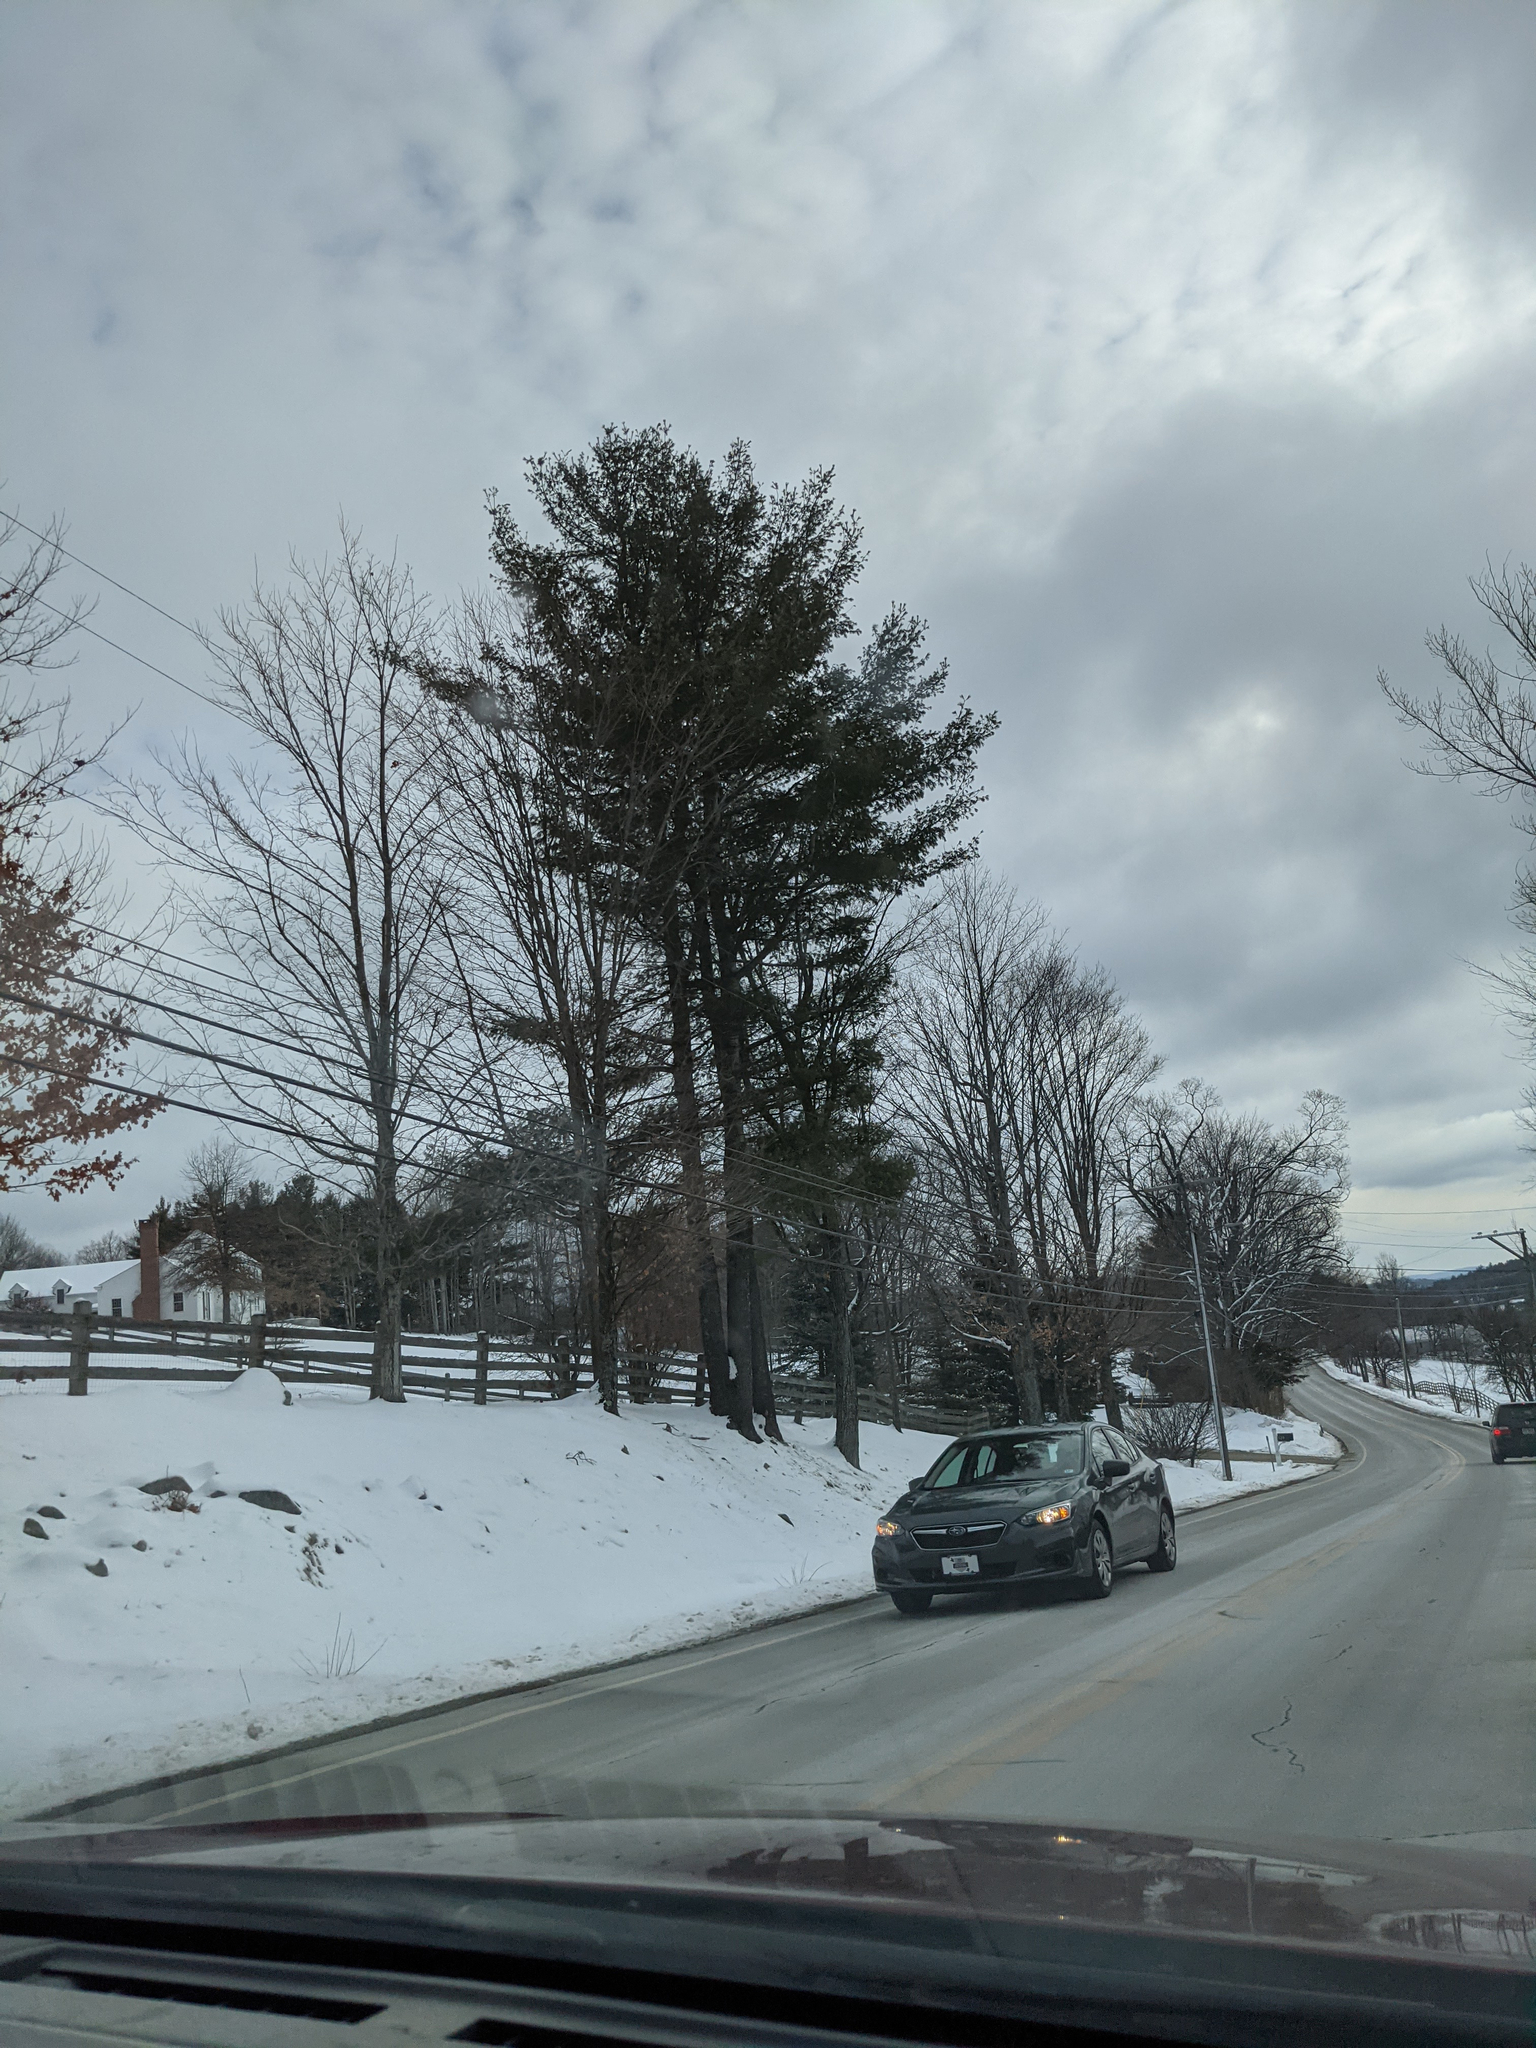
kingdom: Plantae
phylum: Tracheophyta
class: Pinopsida
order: Pinales
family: Pinaceae
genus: Pinus
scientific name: Pinus strobus
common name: Weymouth pine
